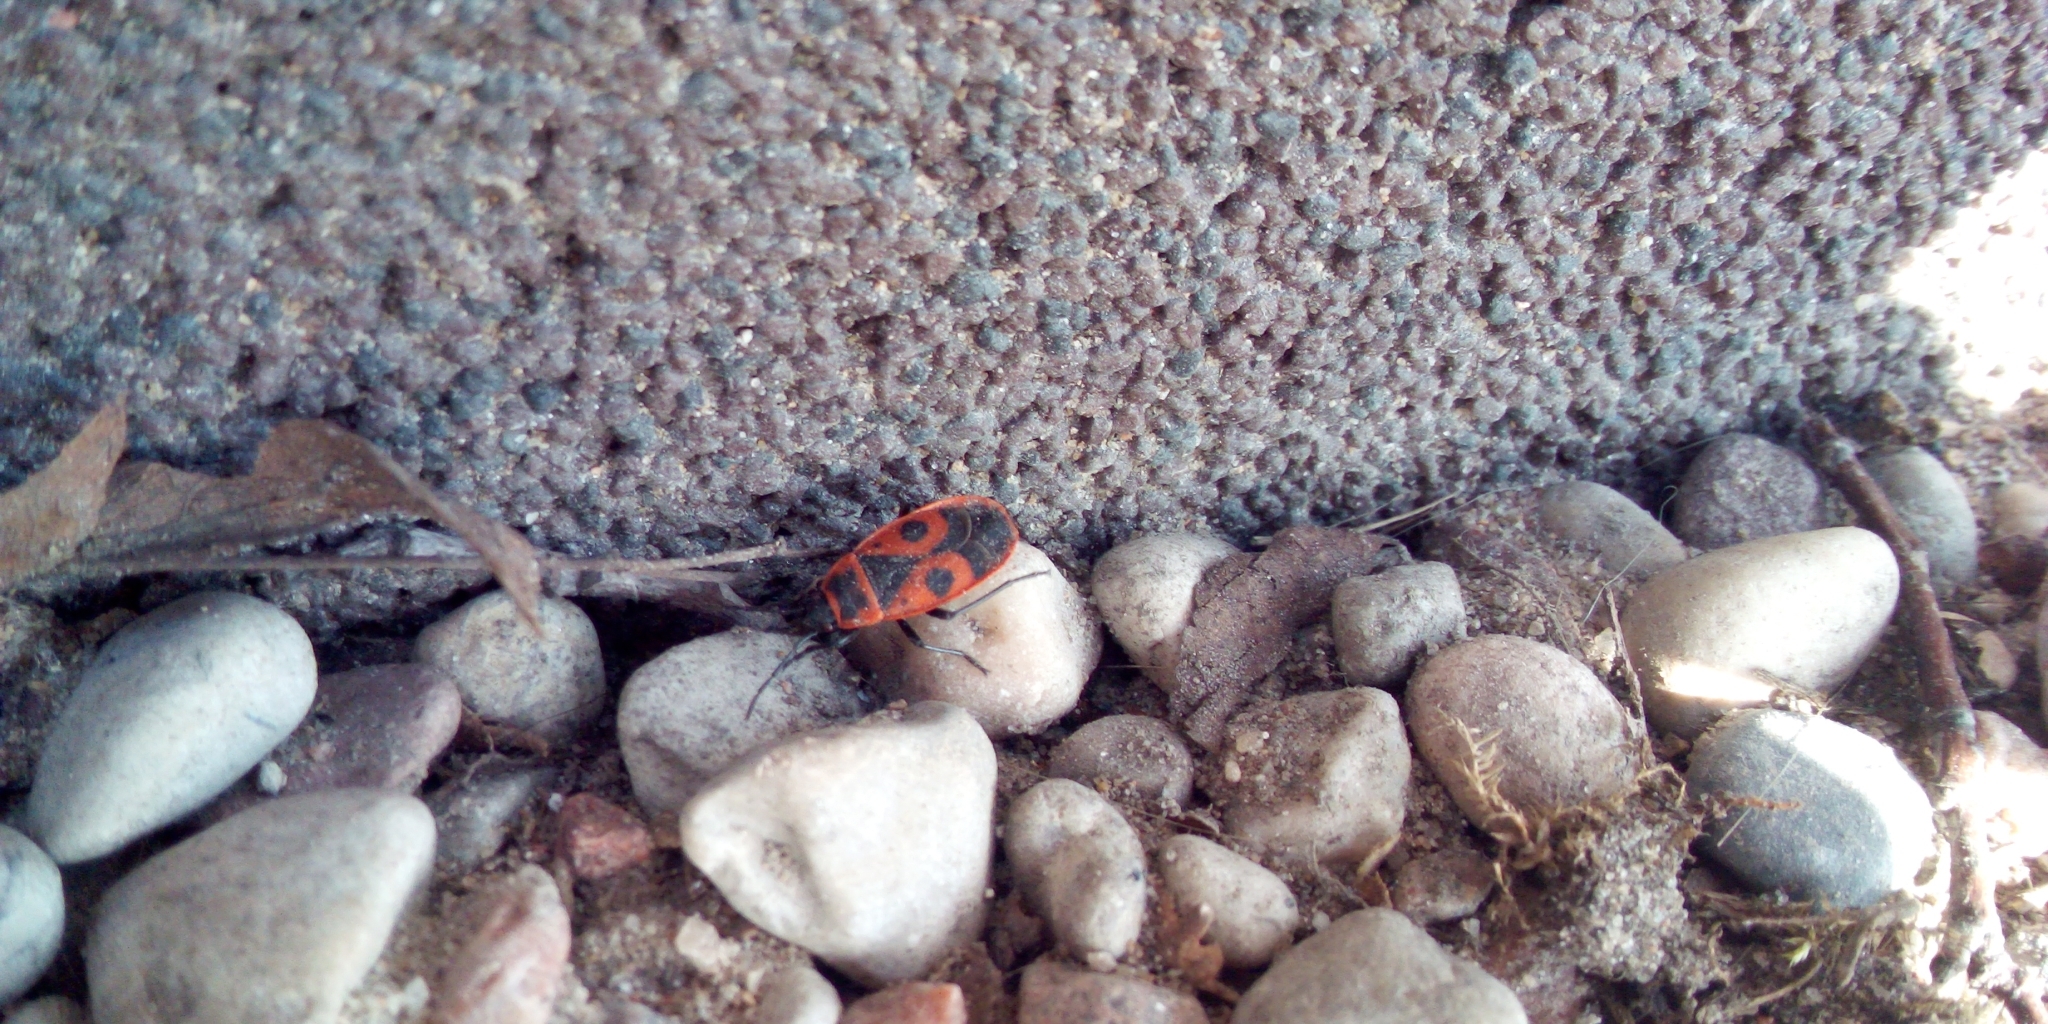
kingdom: Animalia
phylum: Arthropoda
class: Insecta
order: Hemiptera
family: Pyrrhocoridae
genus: Pyrrhocoris
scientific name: Pyrrhocoris apterus
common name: Firebug
